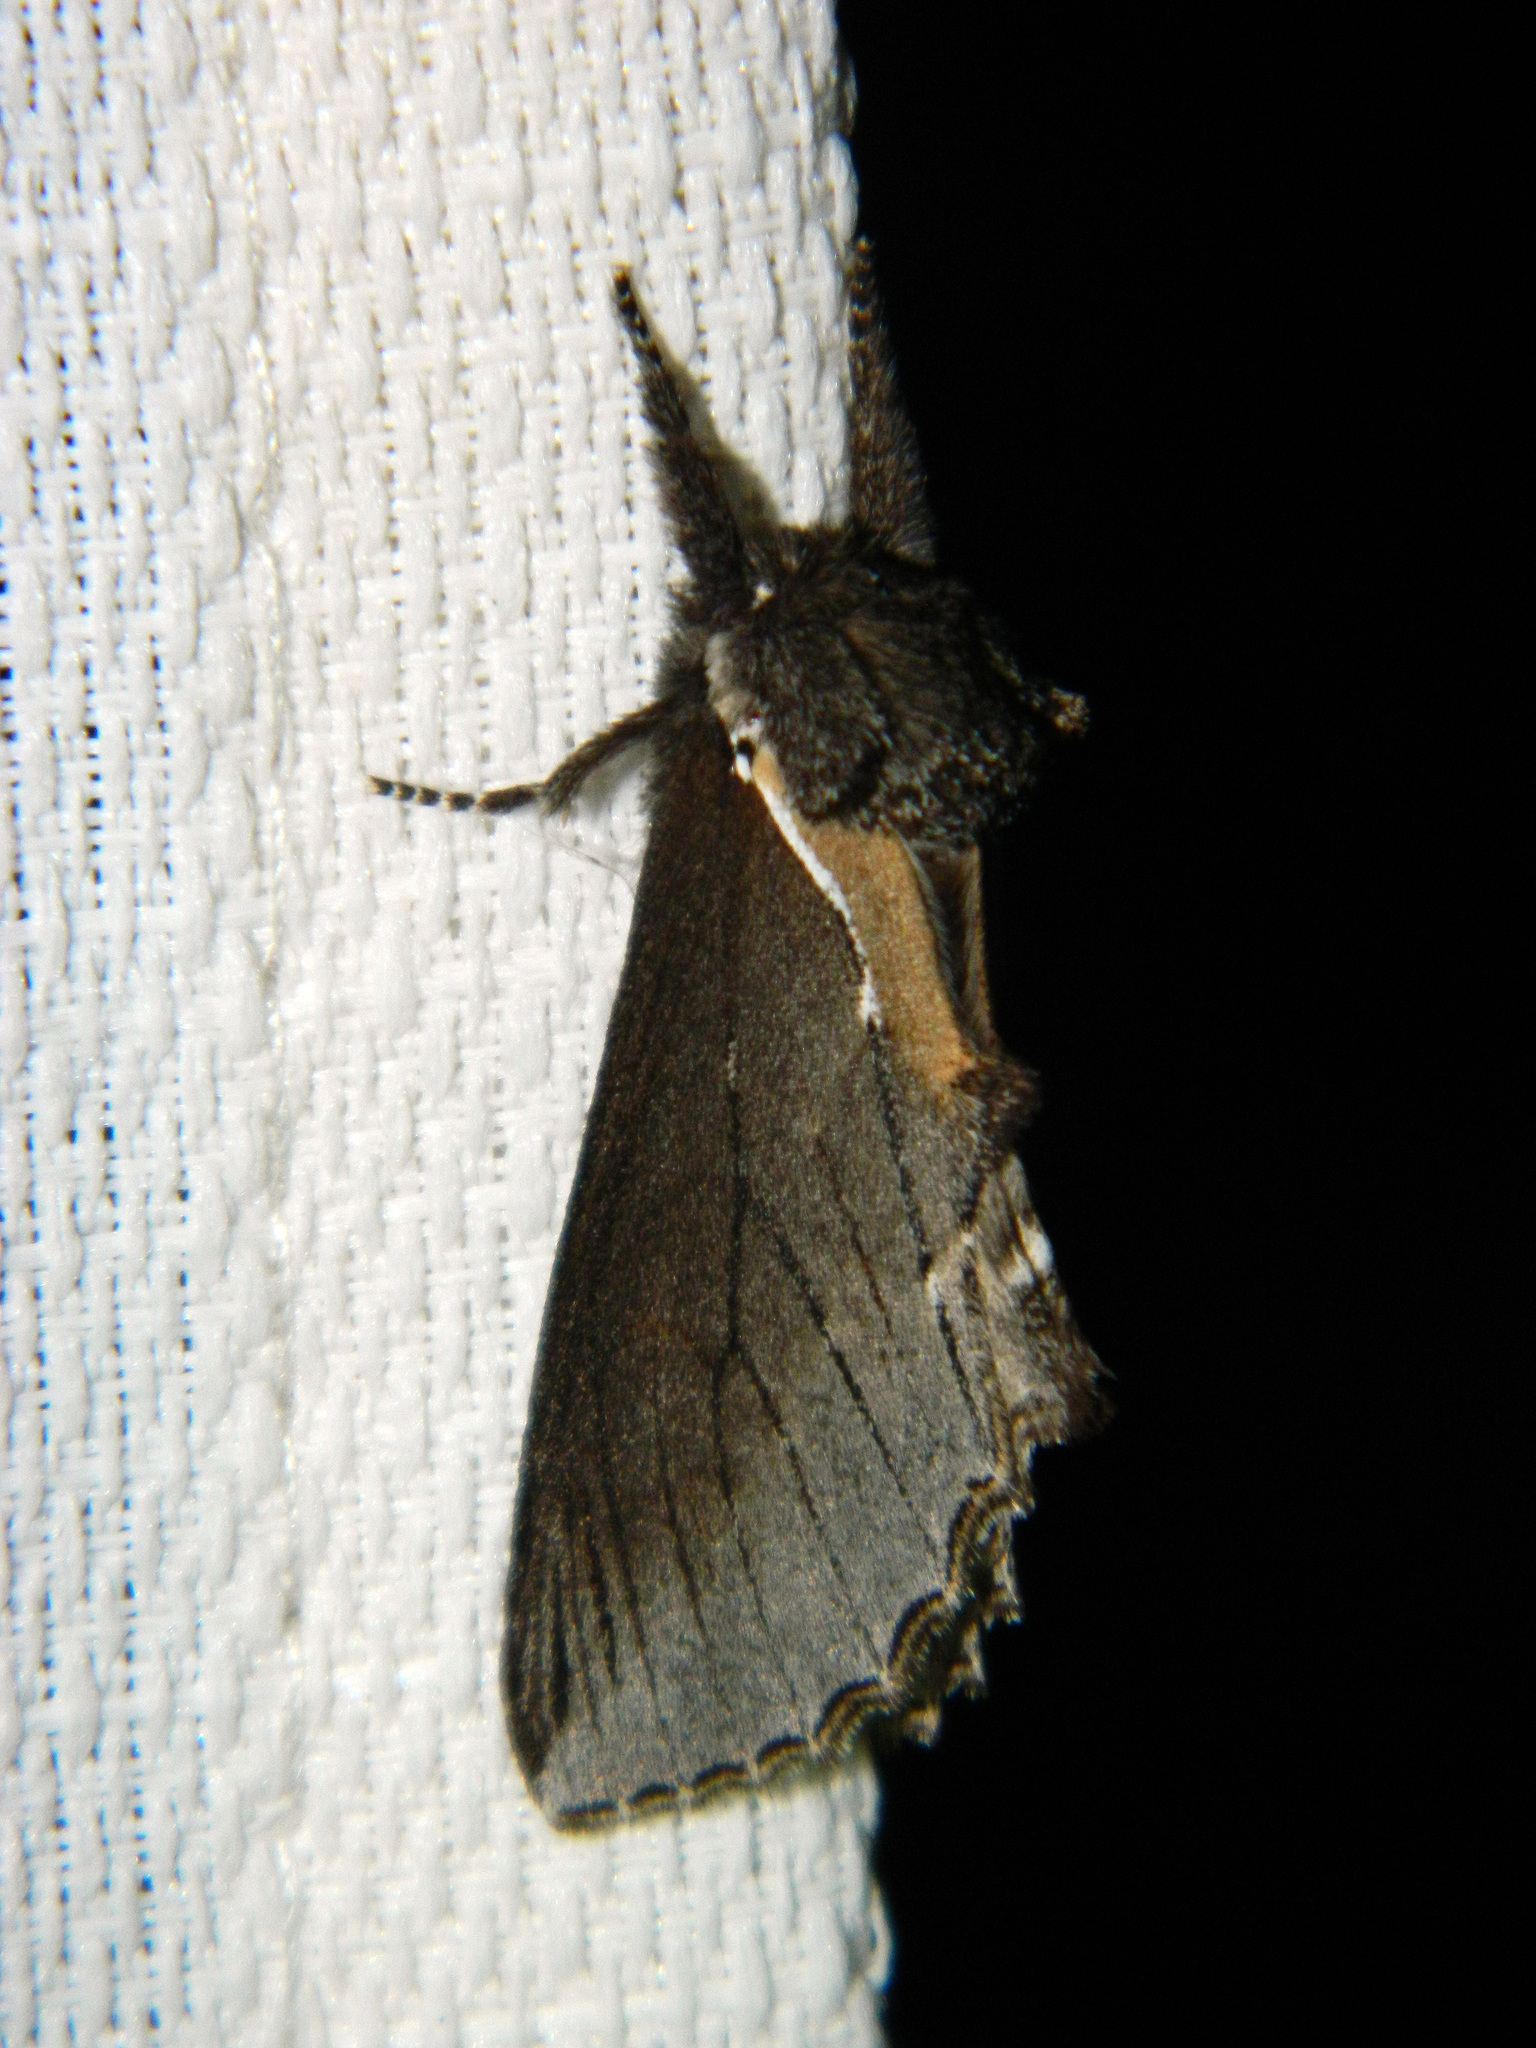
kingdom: Animalia
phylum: Arthropoda
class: Insecta
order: Lepidoptera
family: Notodontidae
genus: Pheosidea
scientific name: Pheosidea elegans
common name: Elegant prominent
